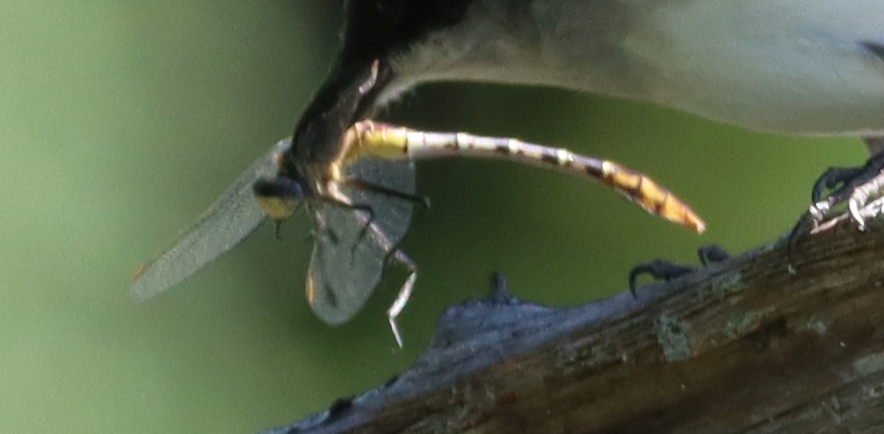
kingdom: Animalia
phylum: Arthropoda
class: Insecta
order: Odonata
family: Gomphidae
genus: Dromogomphus
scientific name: Dromogomphus spoliatus
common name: Flag-tailed spinyleg
